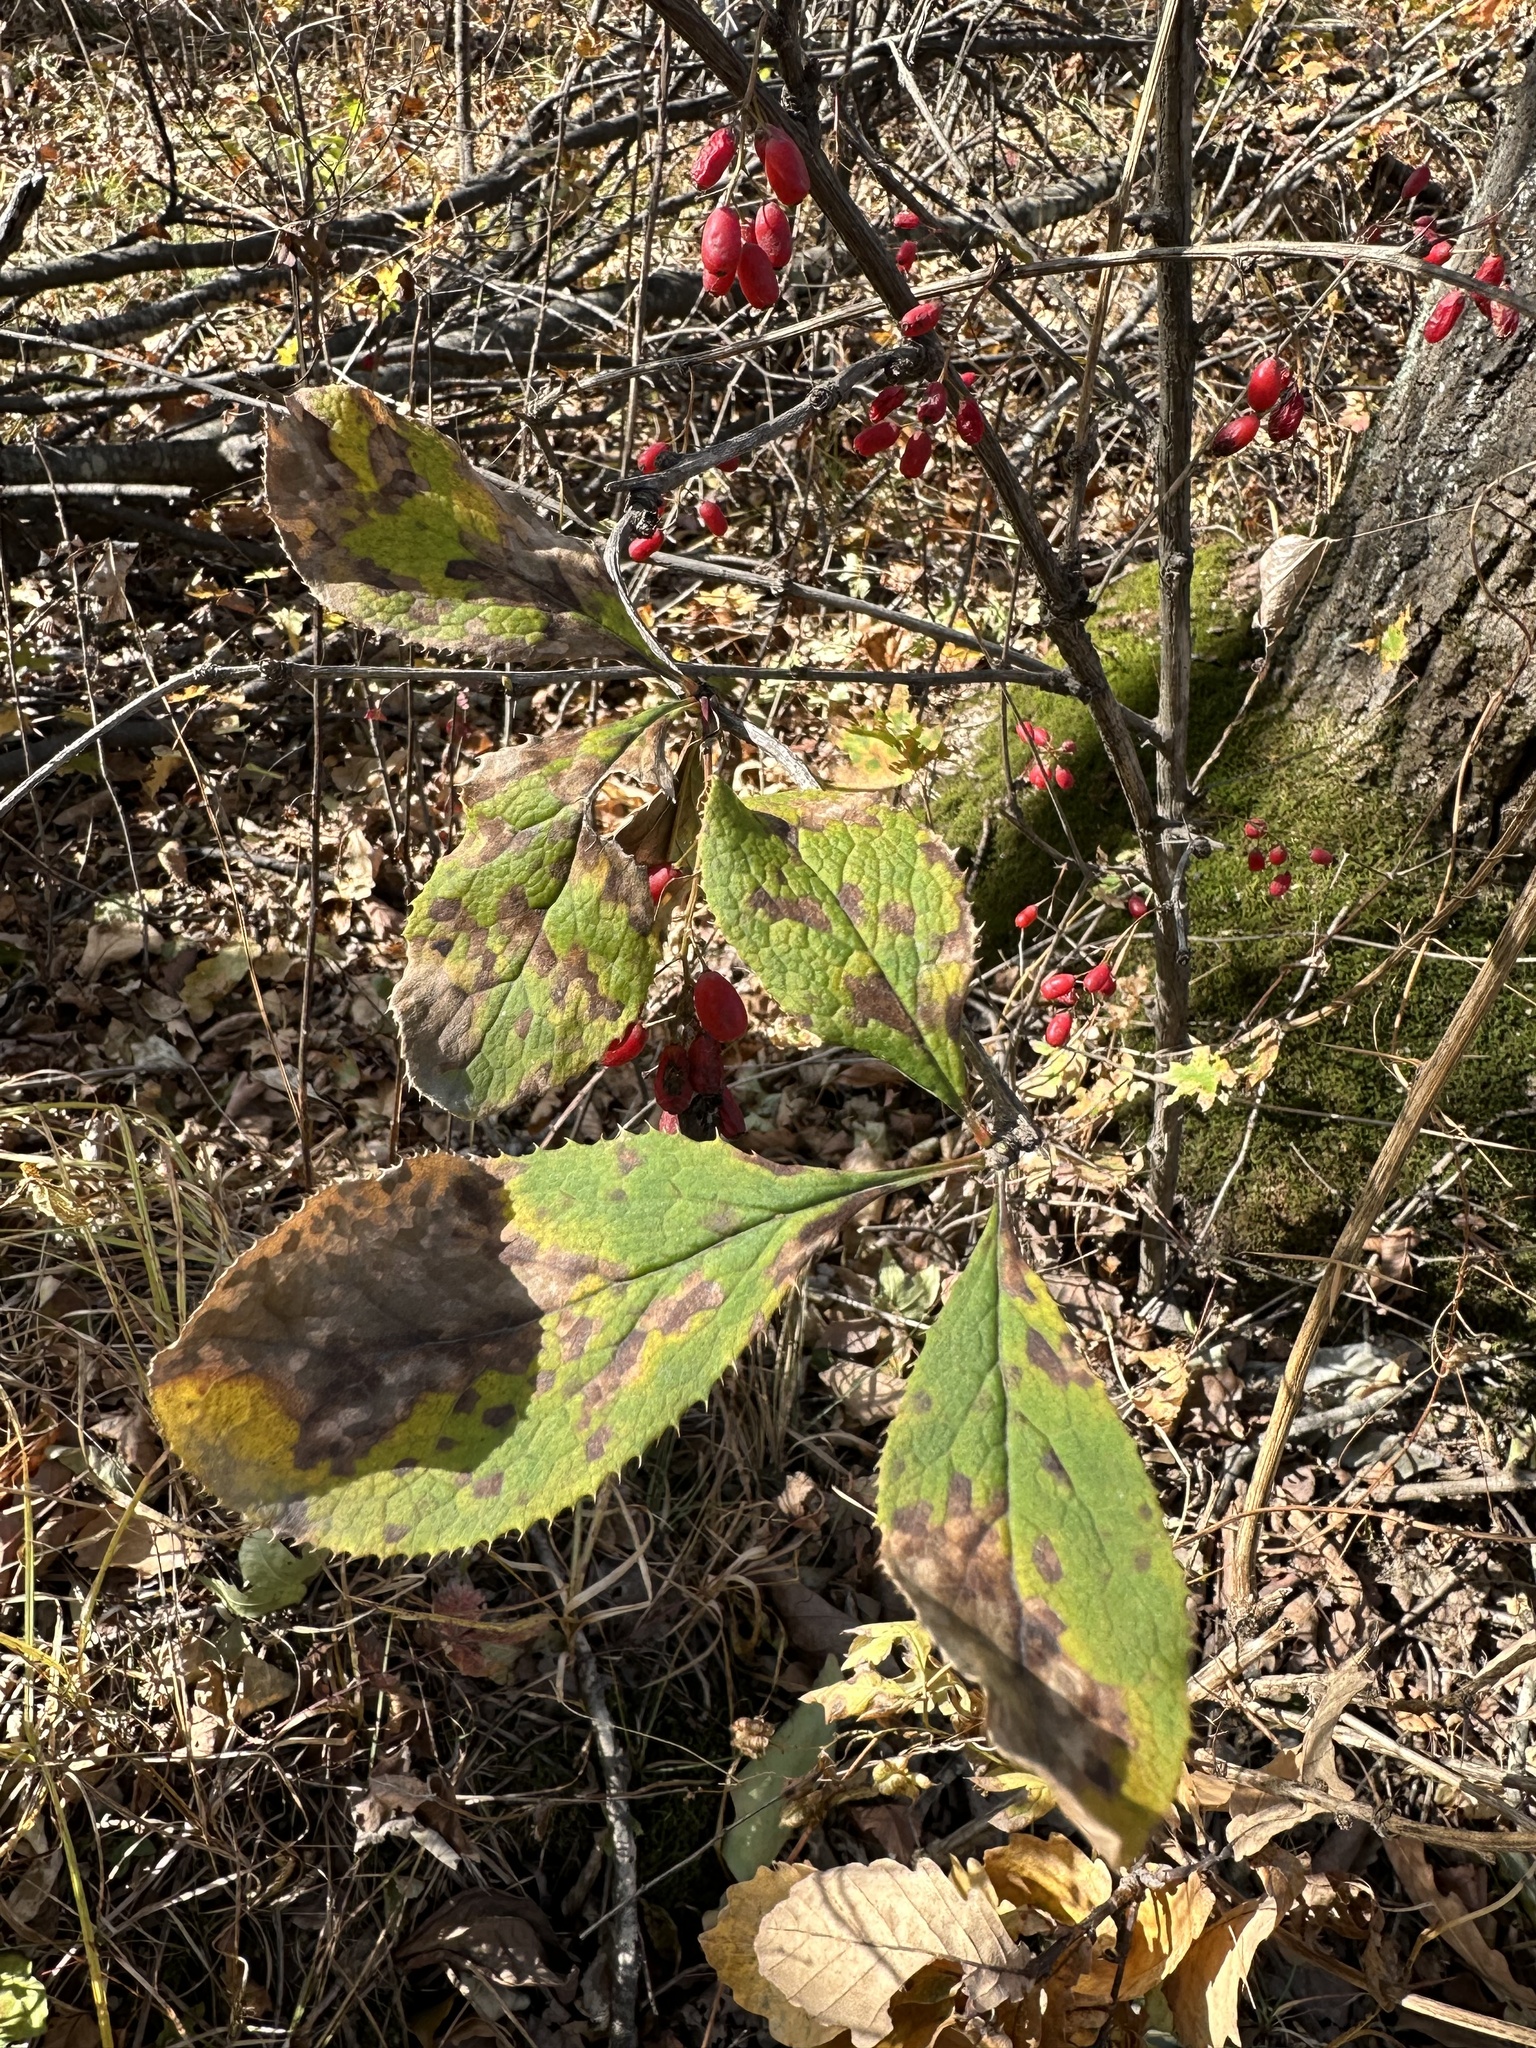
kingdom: Plantae
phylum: Tracheophyta
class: Magnoliopsida
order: Ranunculales
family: Berberidaceae
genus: Berberis
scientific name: Berberis amurensis
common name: Amur barberry
